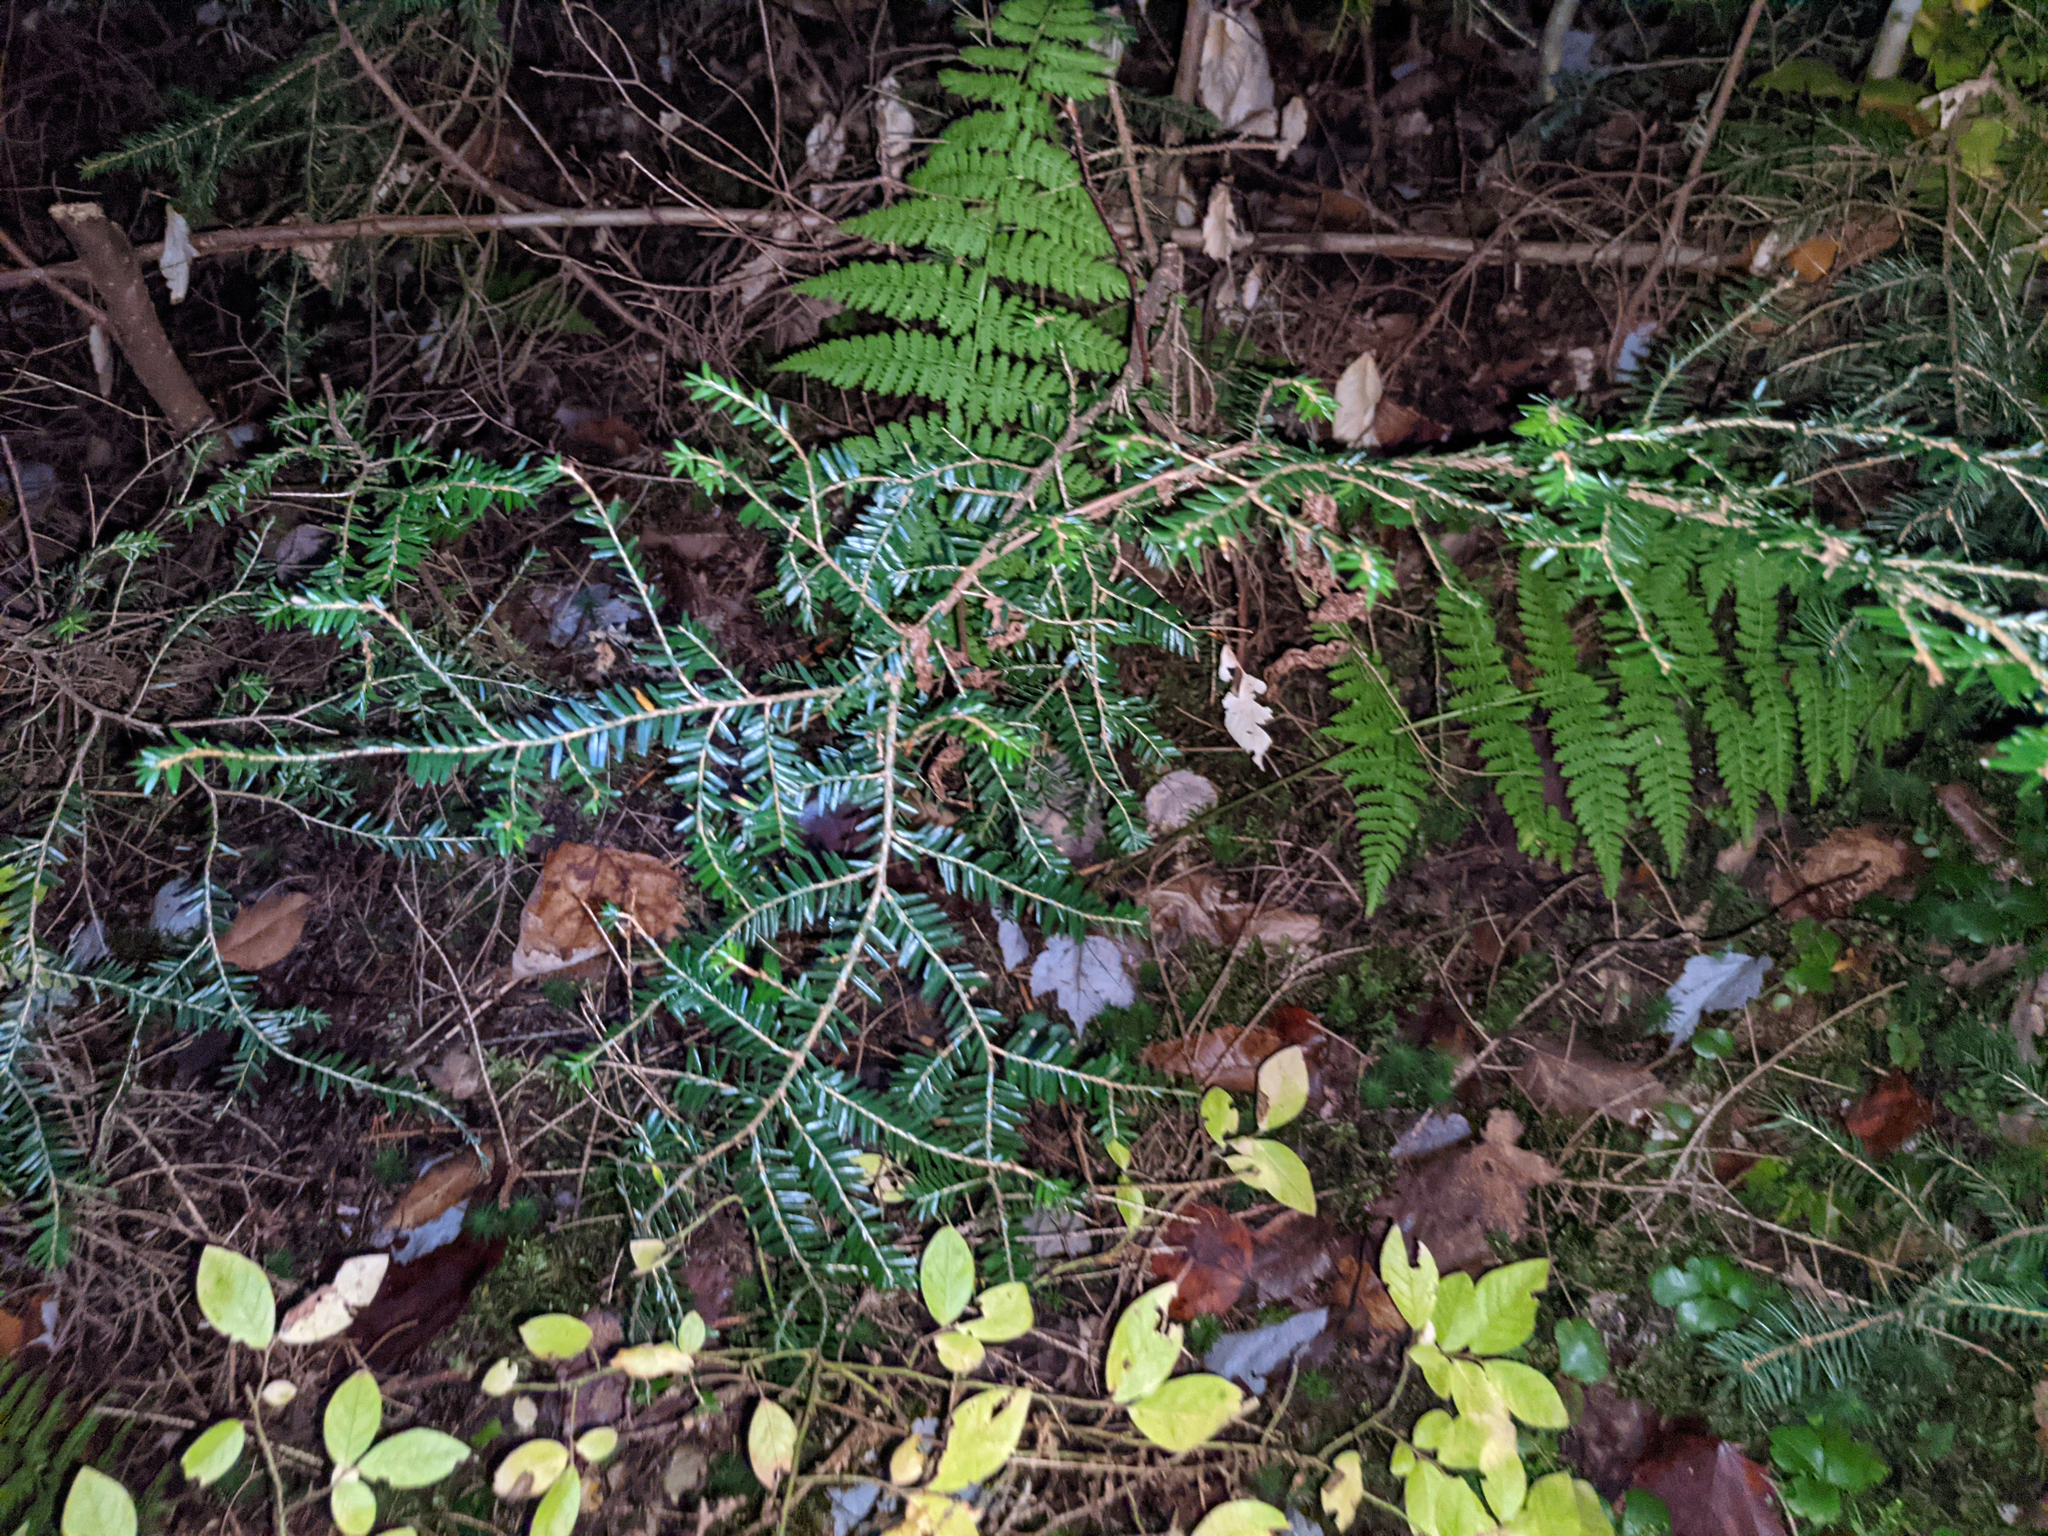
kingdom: Plantae
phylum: Tracheophyta
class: Pinopsida
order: Pinales
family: Pinaceae
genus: Tsuga
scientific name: Tsuga canadensis
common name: Eastern hemlock
